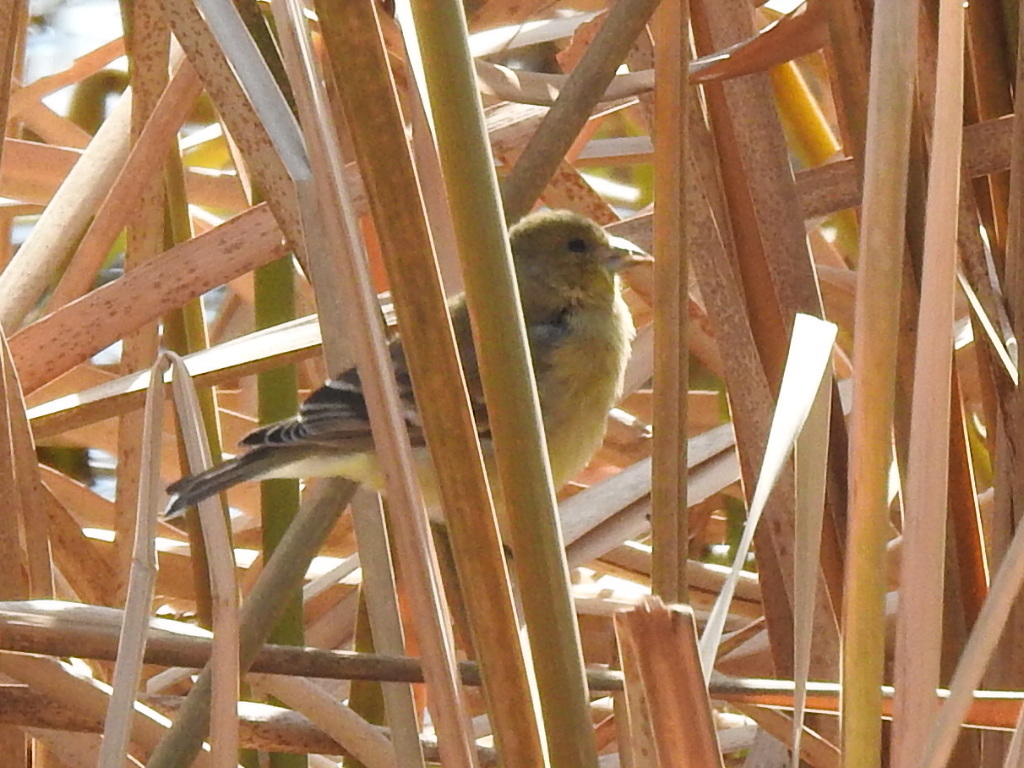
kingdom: Animalia
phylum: Chordata
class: Aves
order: Passeriformes
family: Fringillidae
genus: Spinus
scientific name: Spinus tristis
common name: American goldfinch
